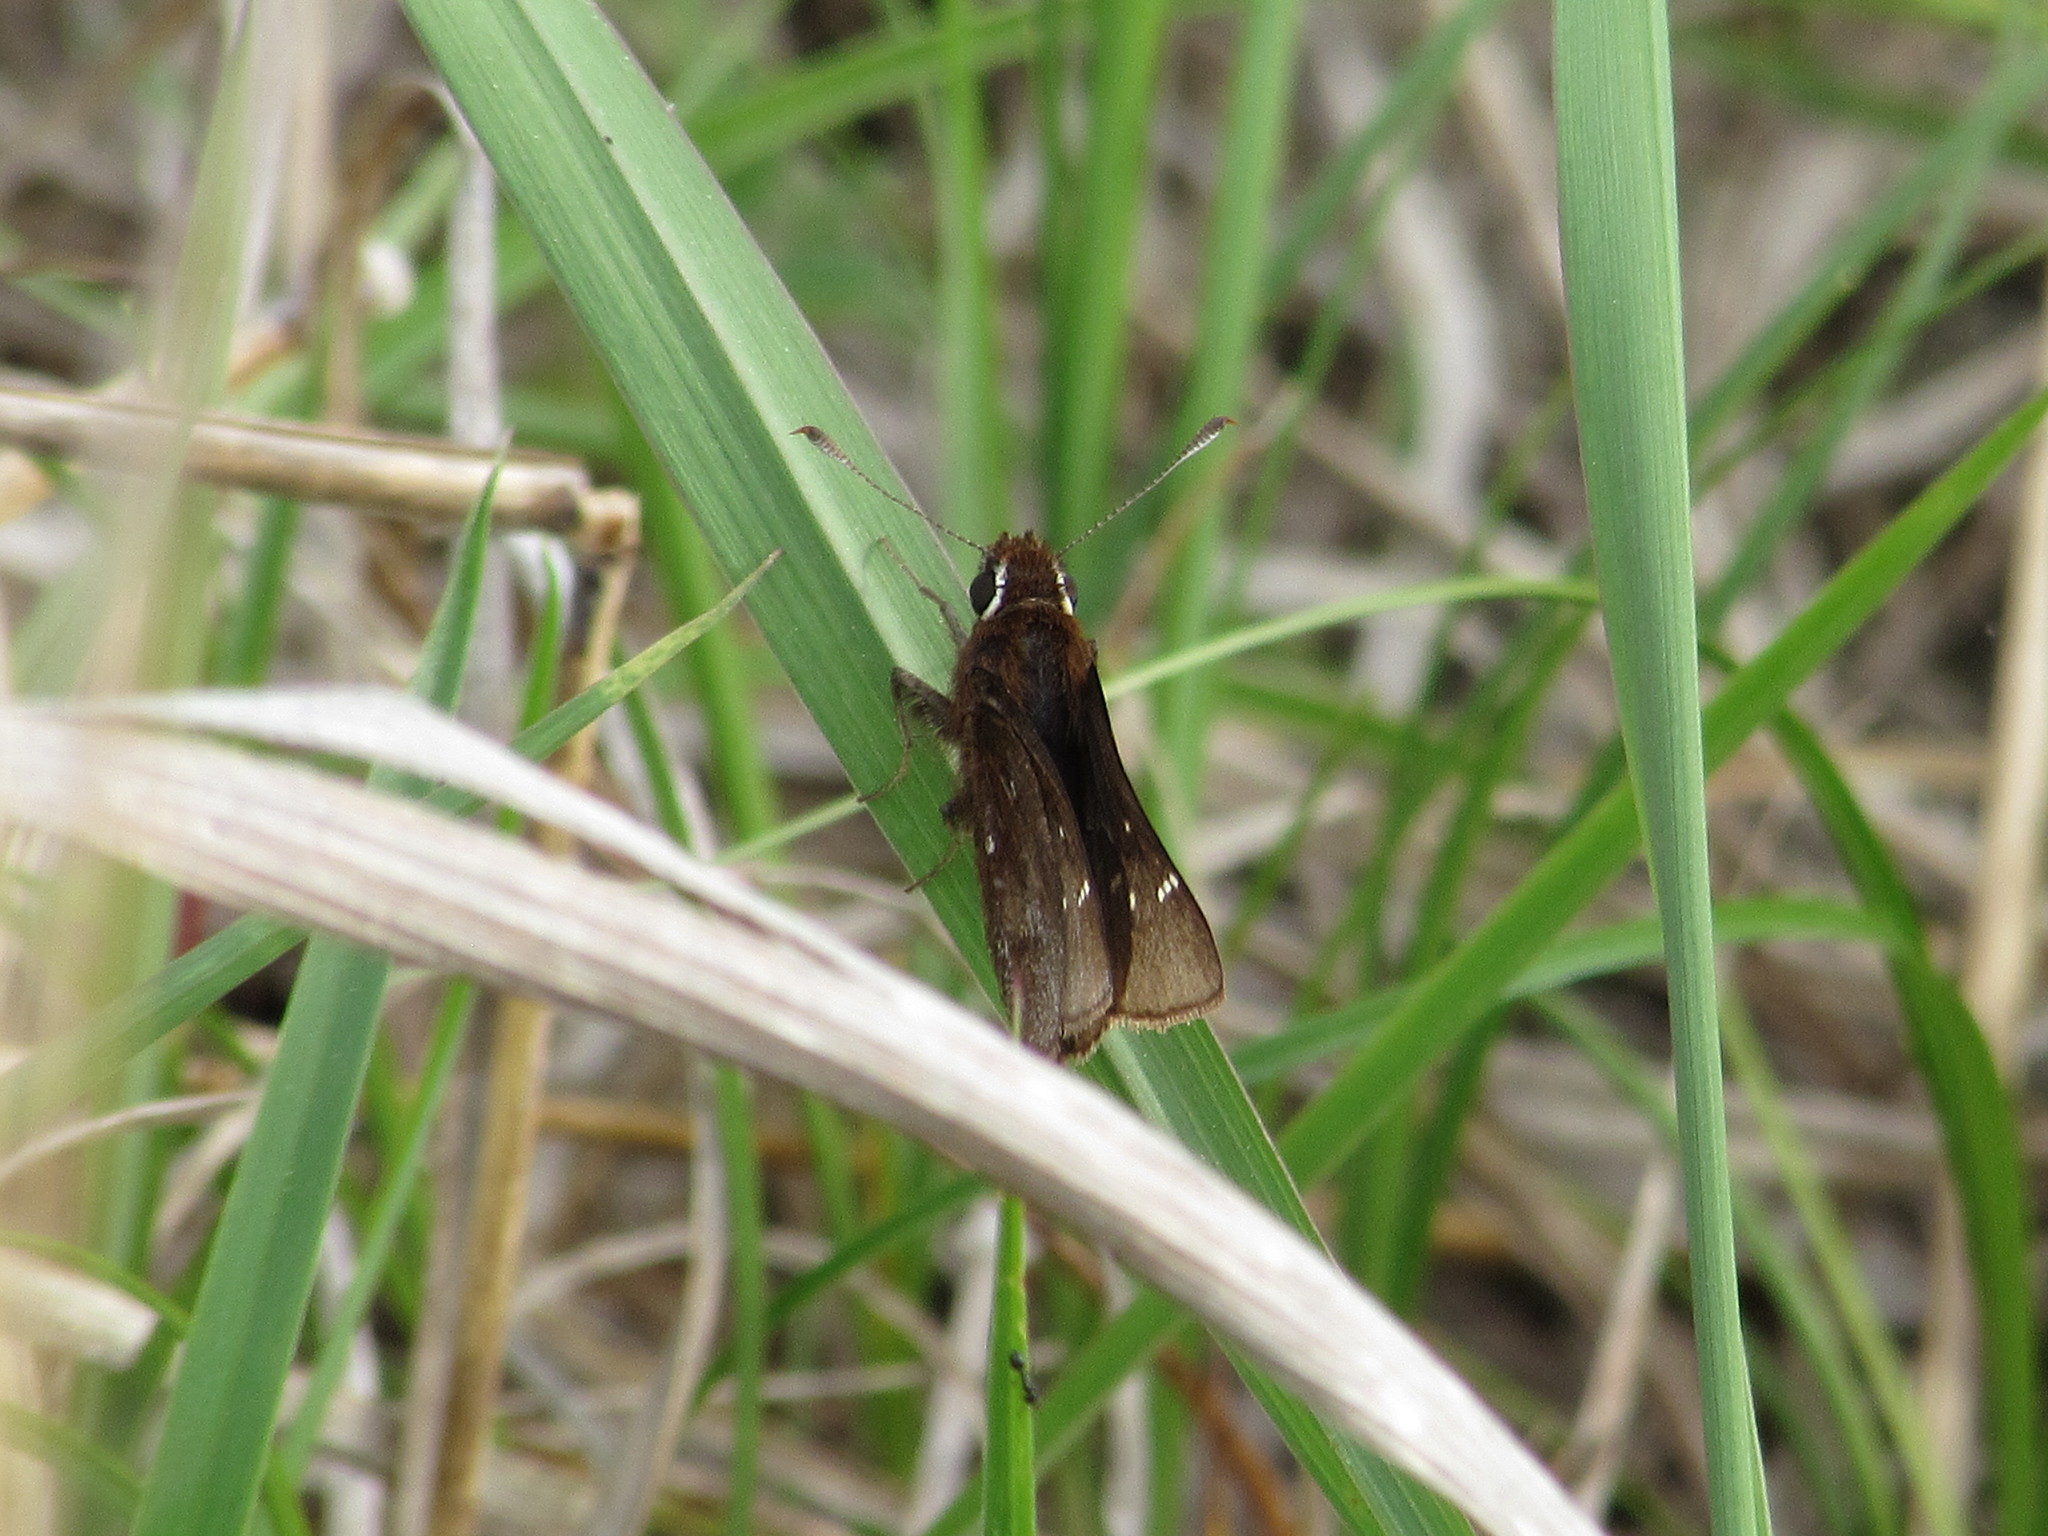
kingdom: Animalia
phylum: Arthropoda
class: Insecta
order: Lepidoptera
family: Hesperiidae
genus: Atrytonopsis
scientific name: Atrytonopsis hianna
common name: Dusted skipper
